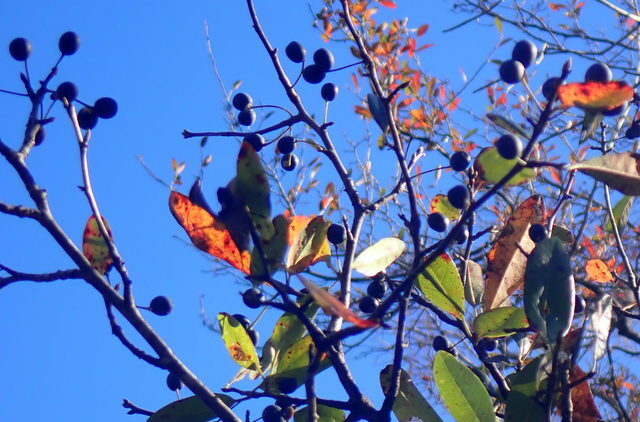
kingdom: Plantae
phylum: Tracheophyta
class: Magnoliopsida
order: Cornales
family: Nyssaceae
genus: Nyssa
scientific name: Nyssa biflora
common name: Swamp blackgum
